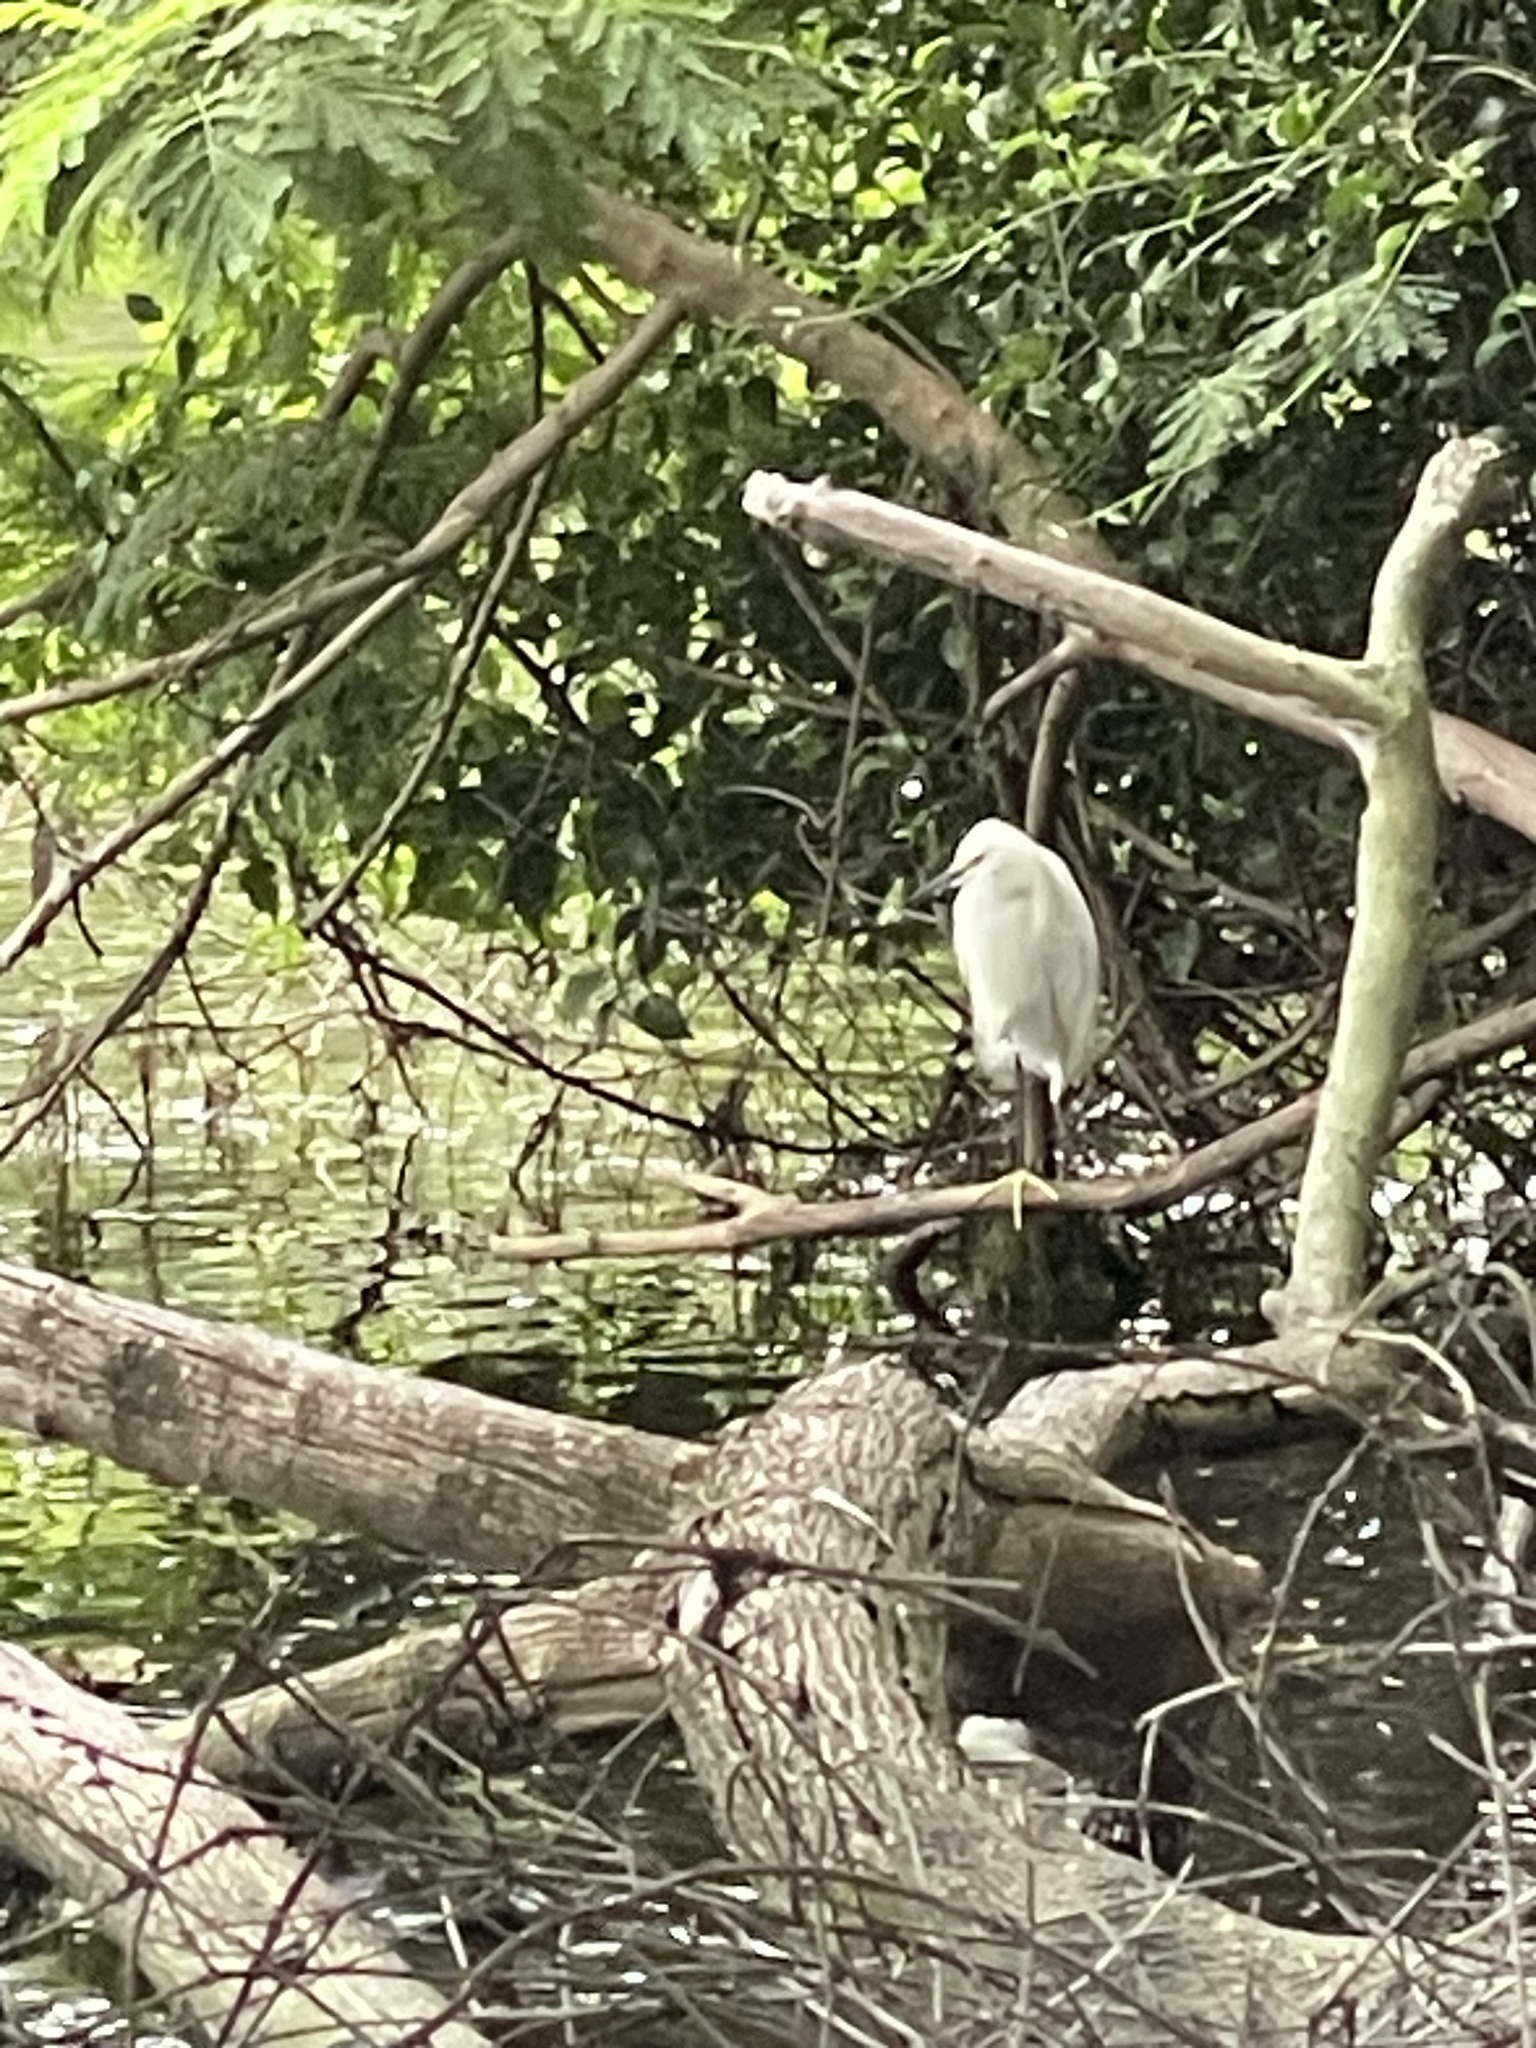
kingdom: Animalia
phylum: Chordata
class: Aves
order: Pelecaniformes
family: Ardeidae
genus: Egretta
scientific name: Egretta thula
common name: Snowy egret
